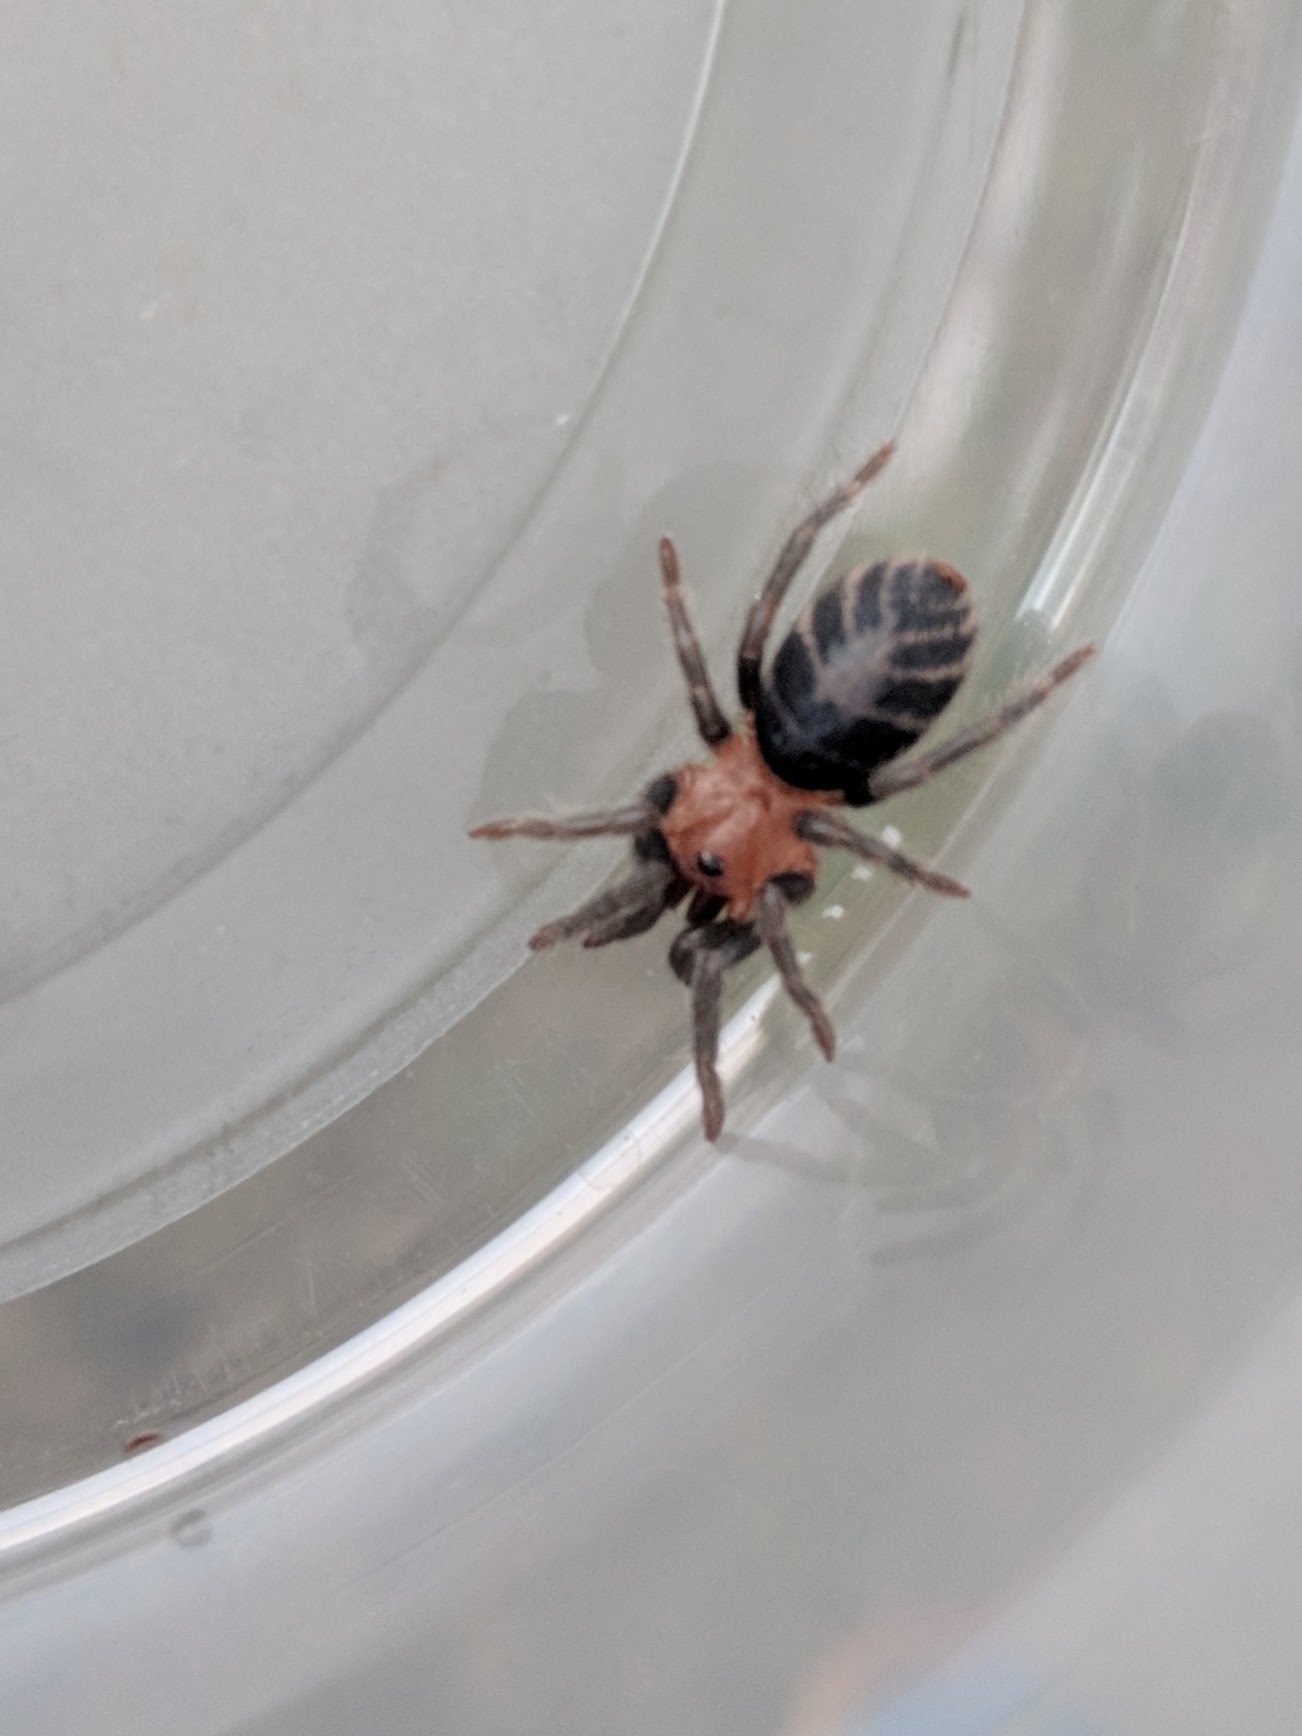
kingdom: Animalia
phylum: Arthropoda
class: Arachnida
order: Araneae
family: Theraphosidae
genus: Davus
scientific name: Davus ruficeps
